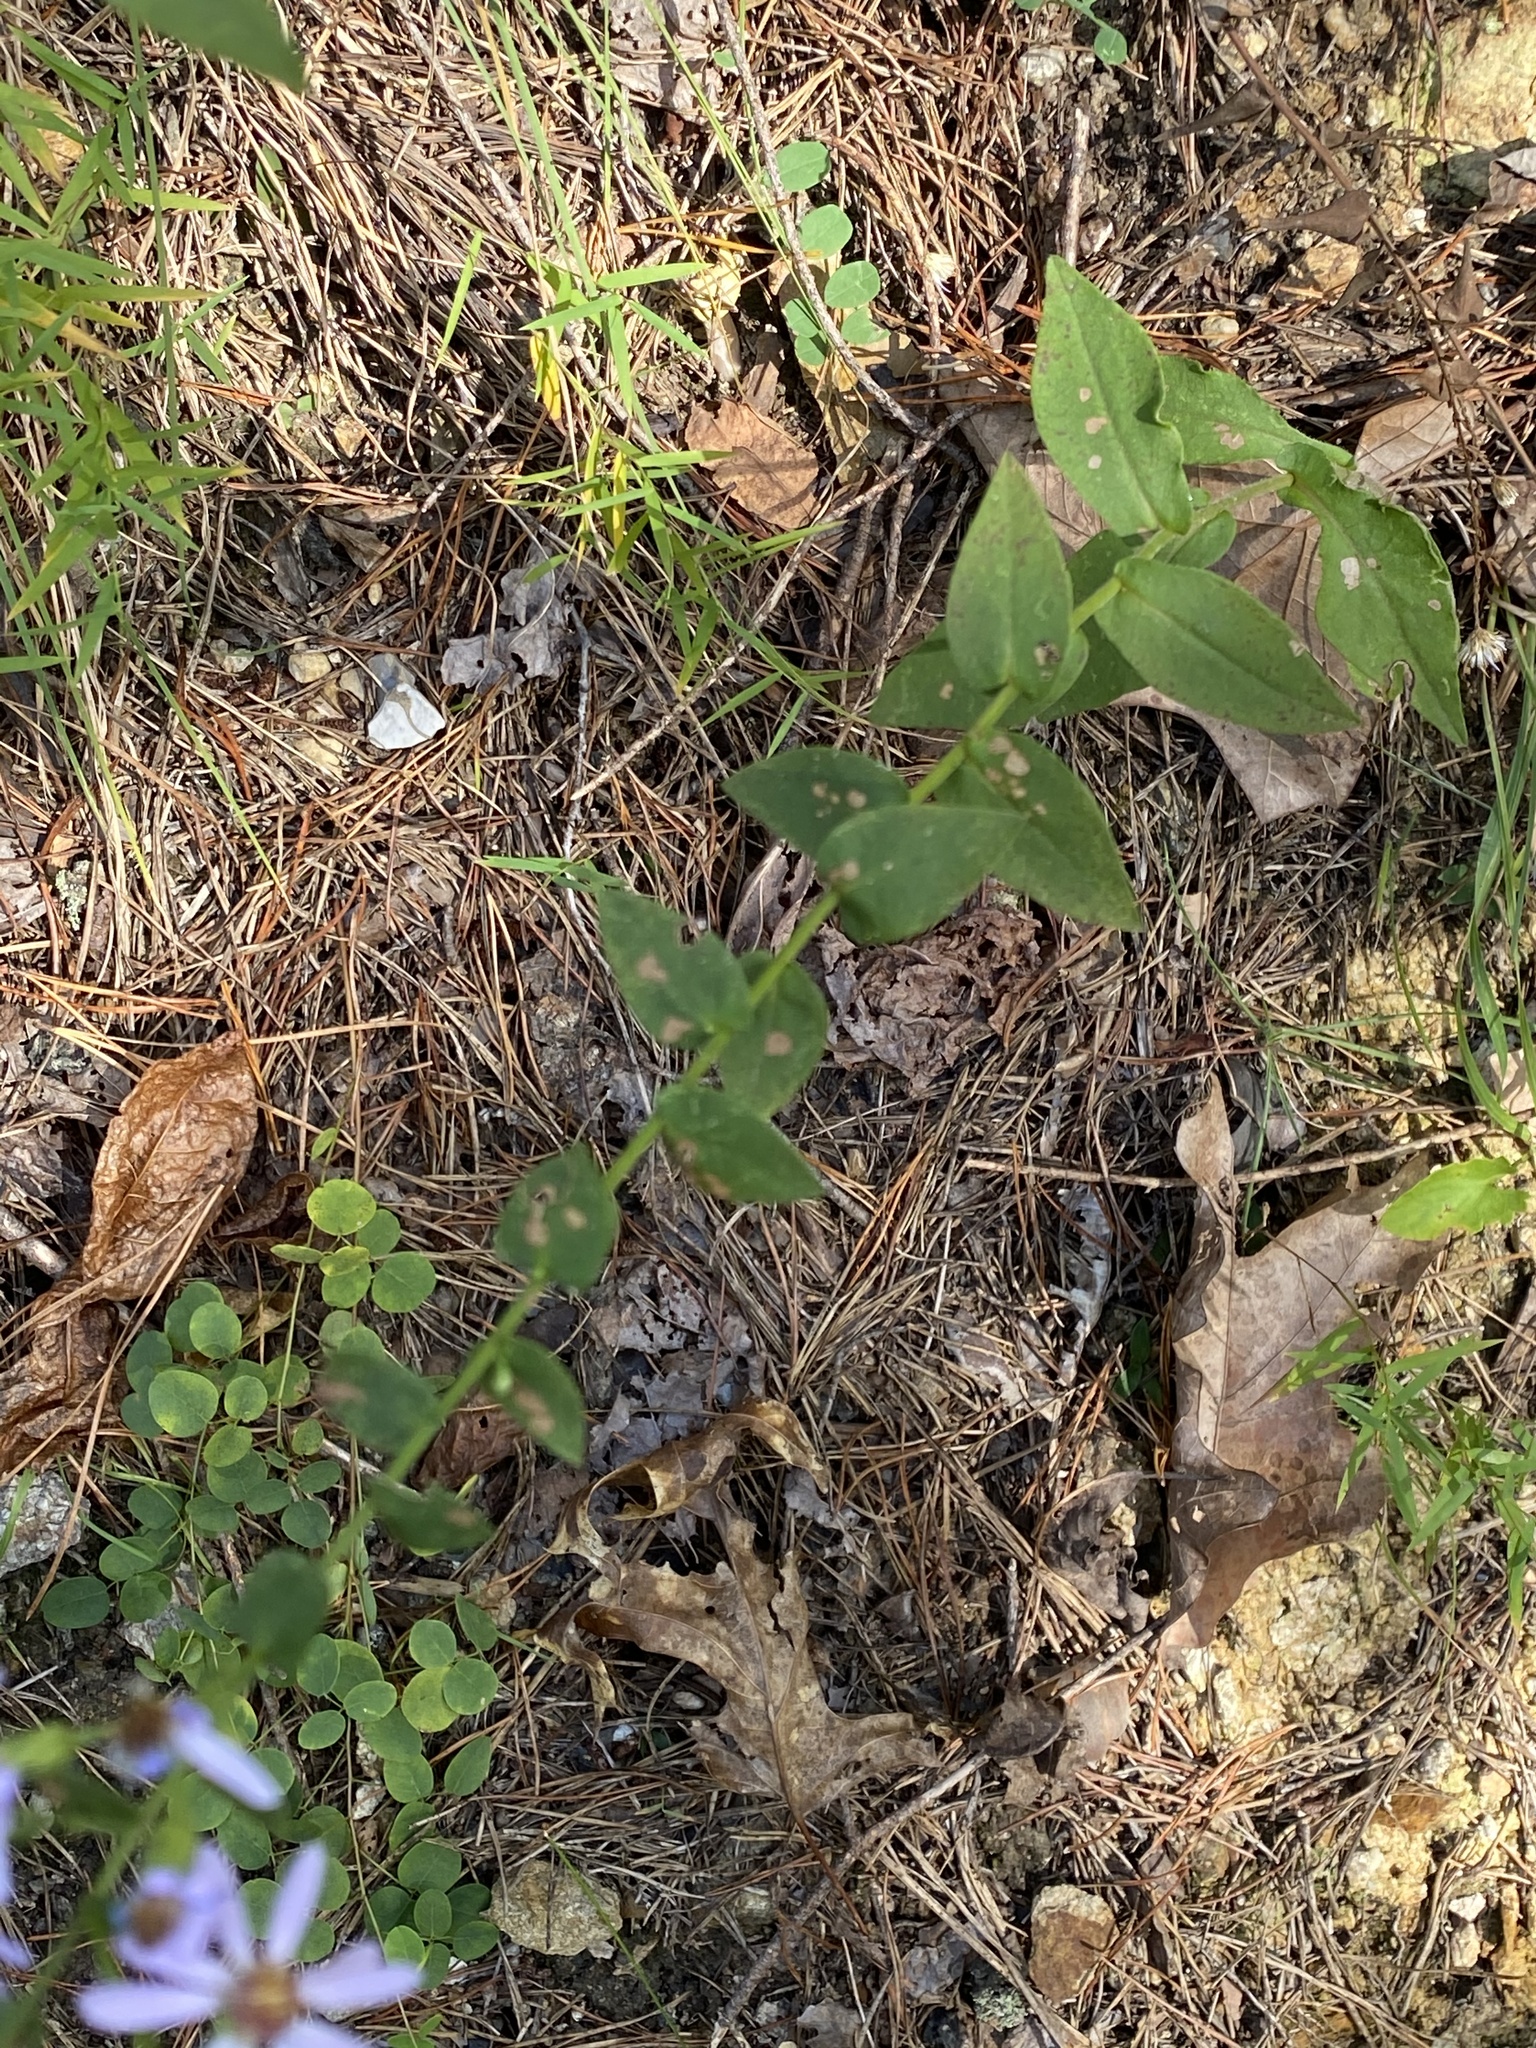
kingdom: Plantae
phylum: Tracheophyta
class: Magnoliopsida
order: Asterales
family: Asteraceae
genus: Symphyotrichum
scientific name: Symphyotrichum undulatum
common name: Clasping heart-leaf aster
